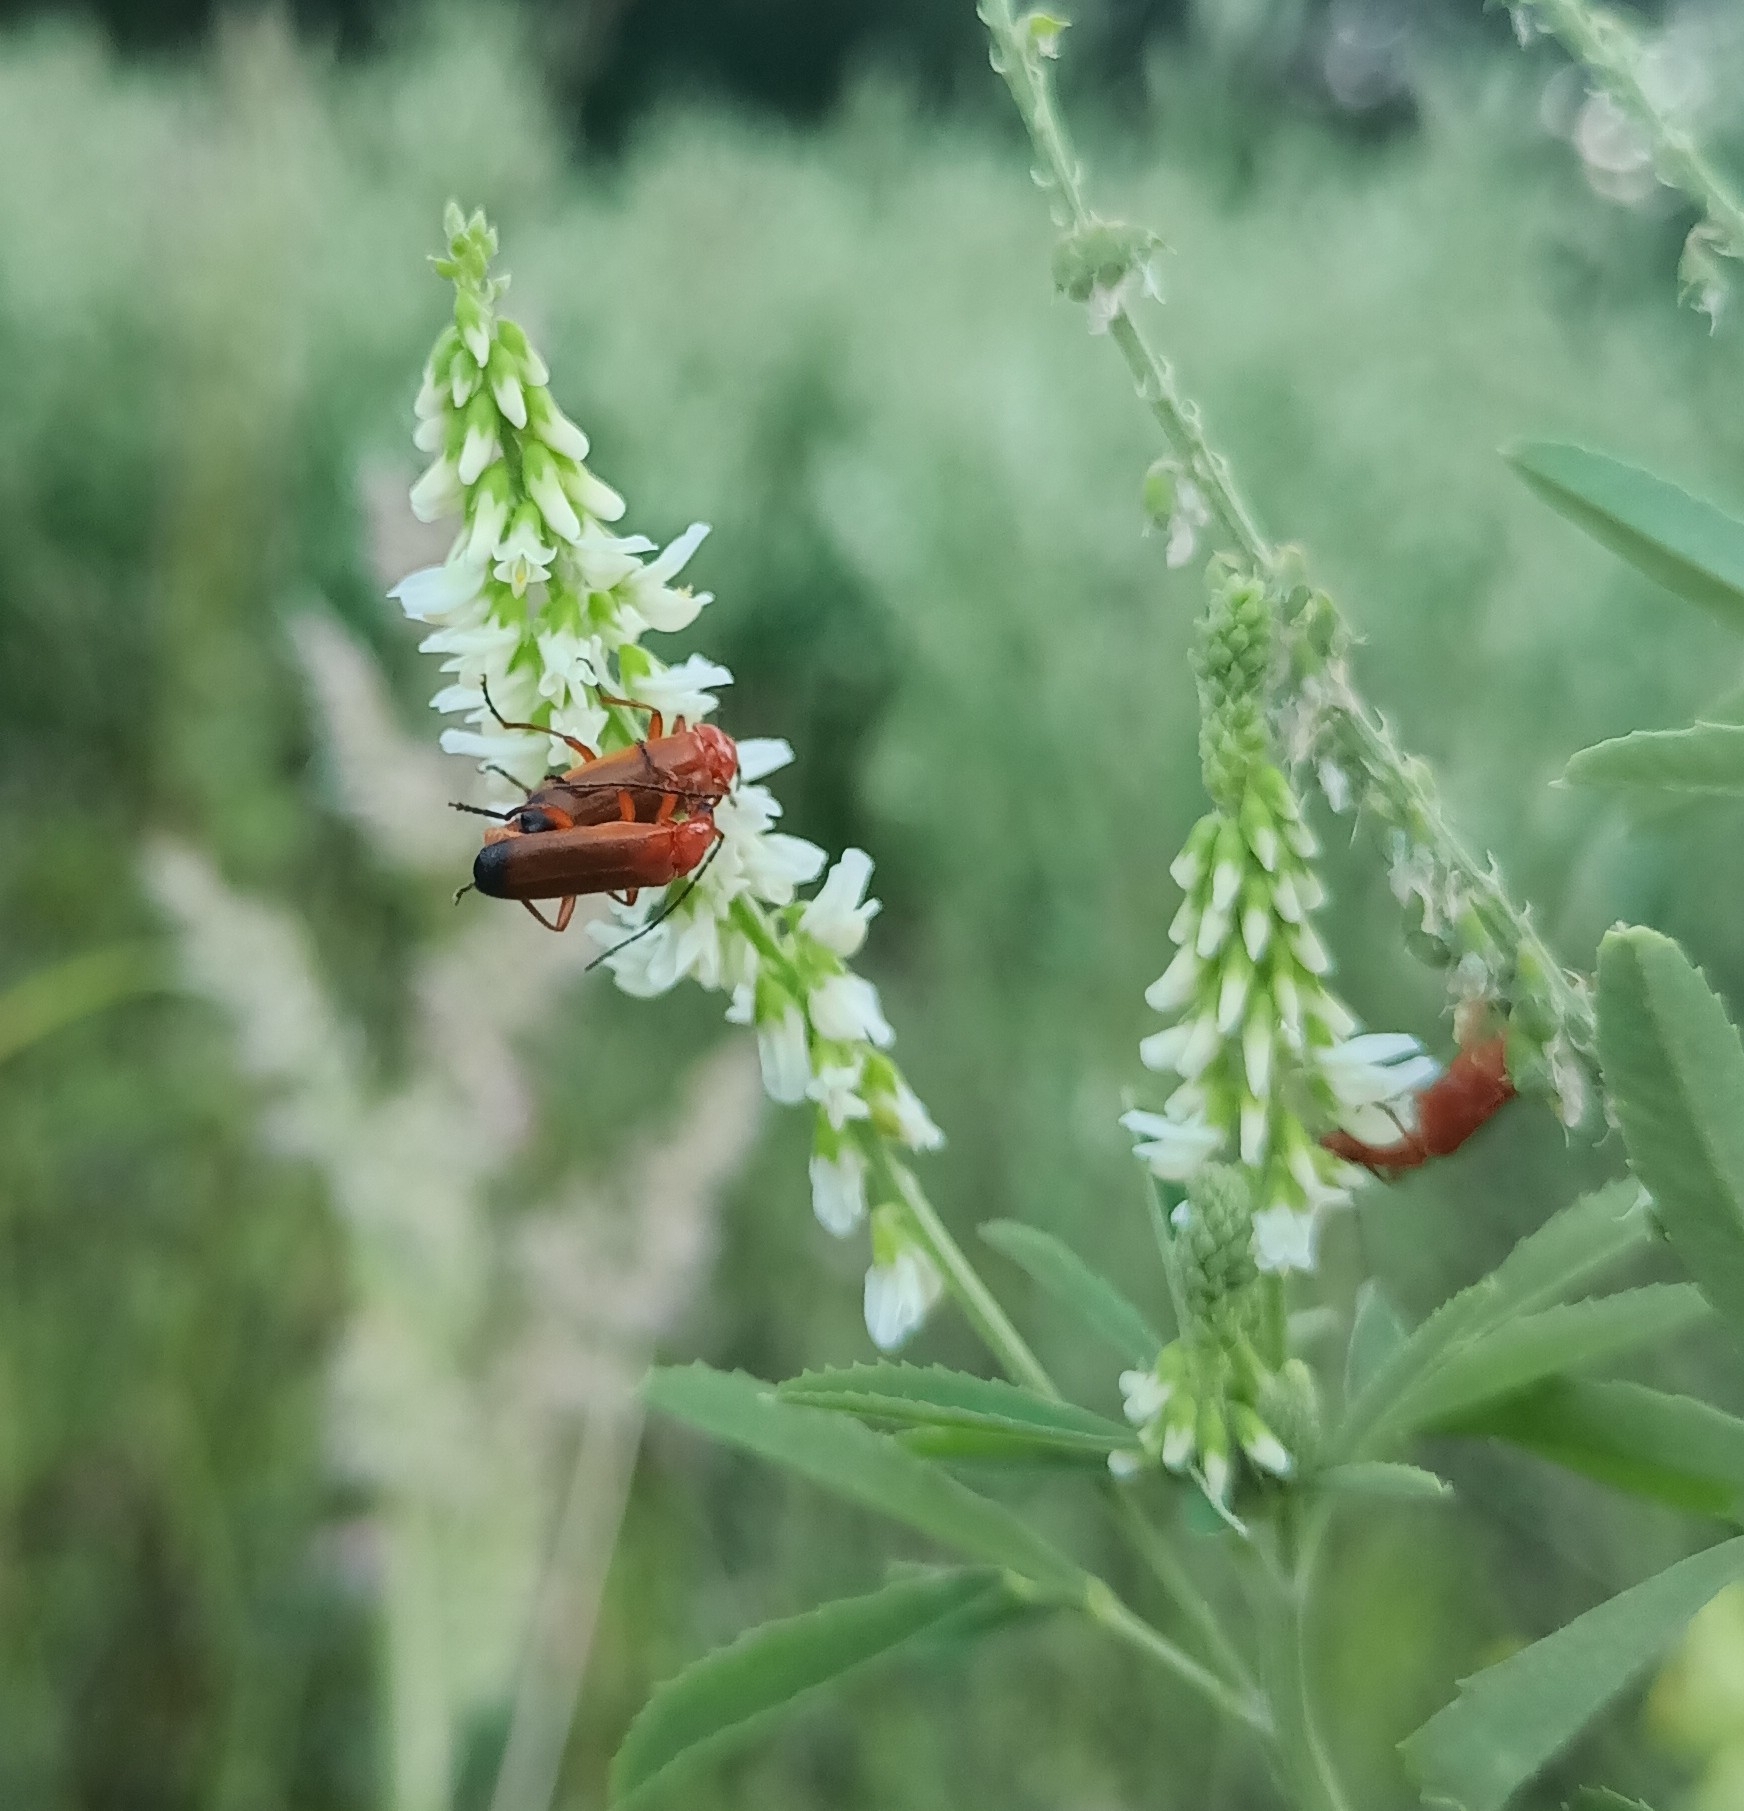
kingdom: Animalia
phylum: Arthropoda
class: Insecta
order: Coleoptera
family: Cantharidae
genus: Rhagonycha
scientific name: Rhagonycha fulva
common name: Common red soldier beetle
